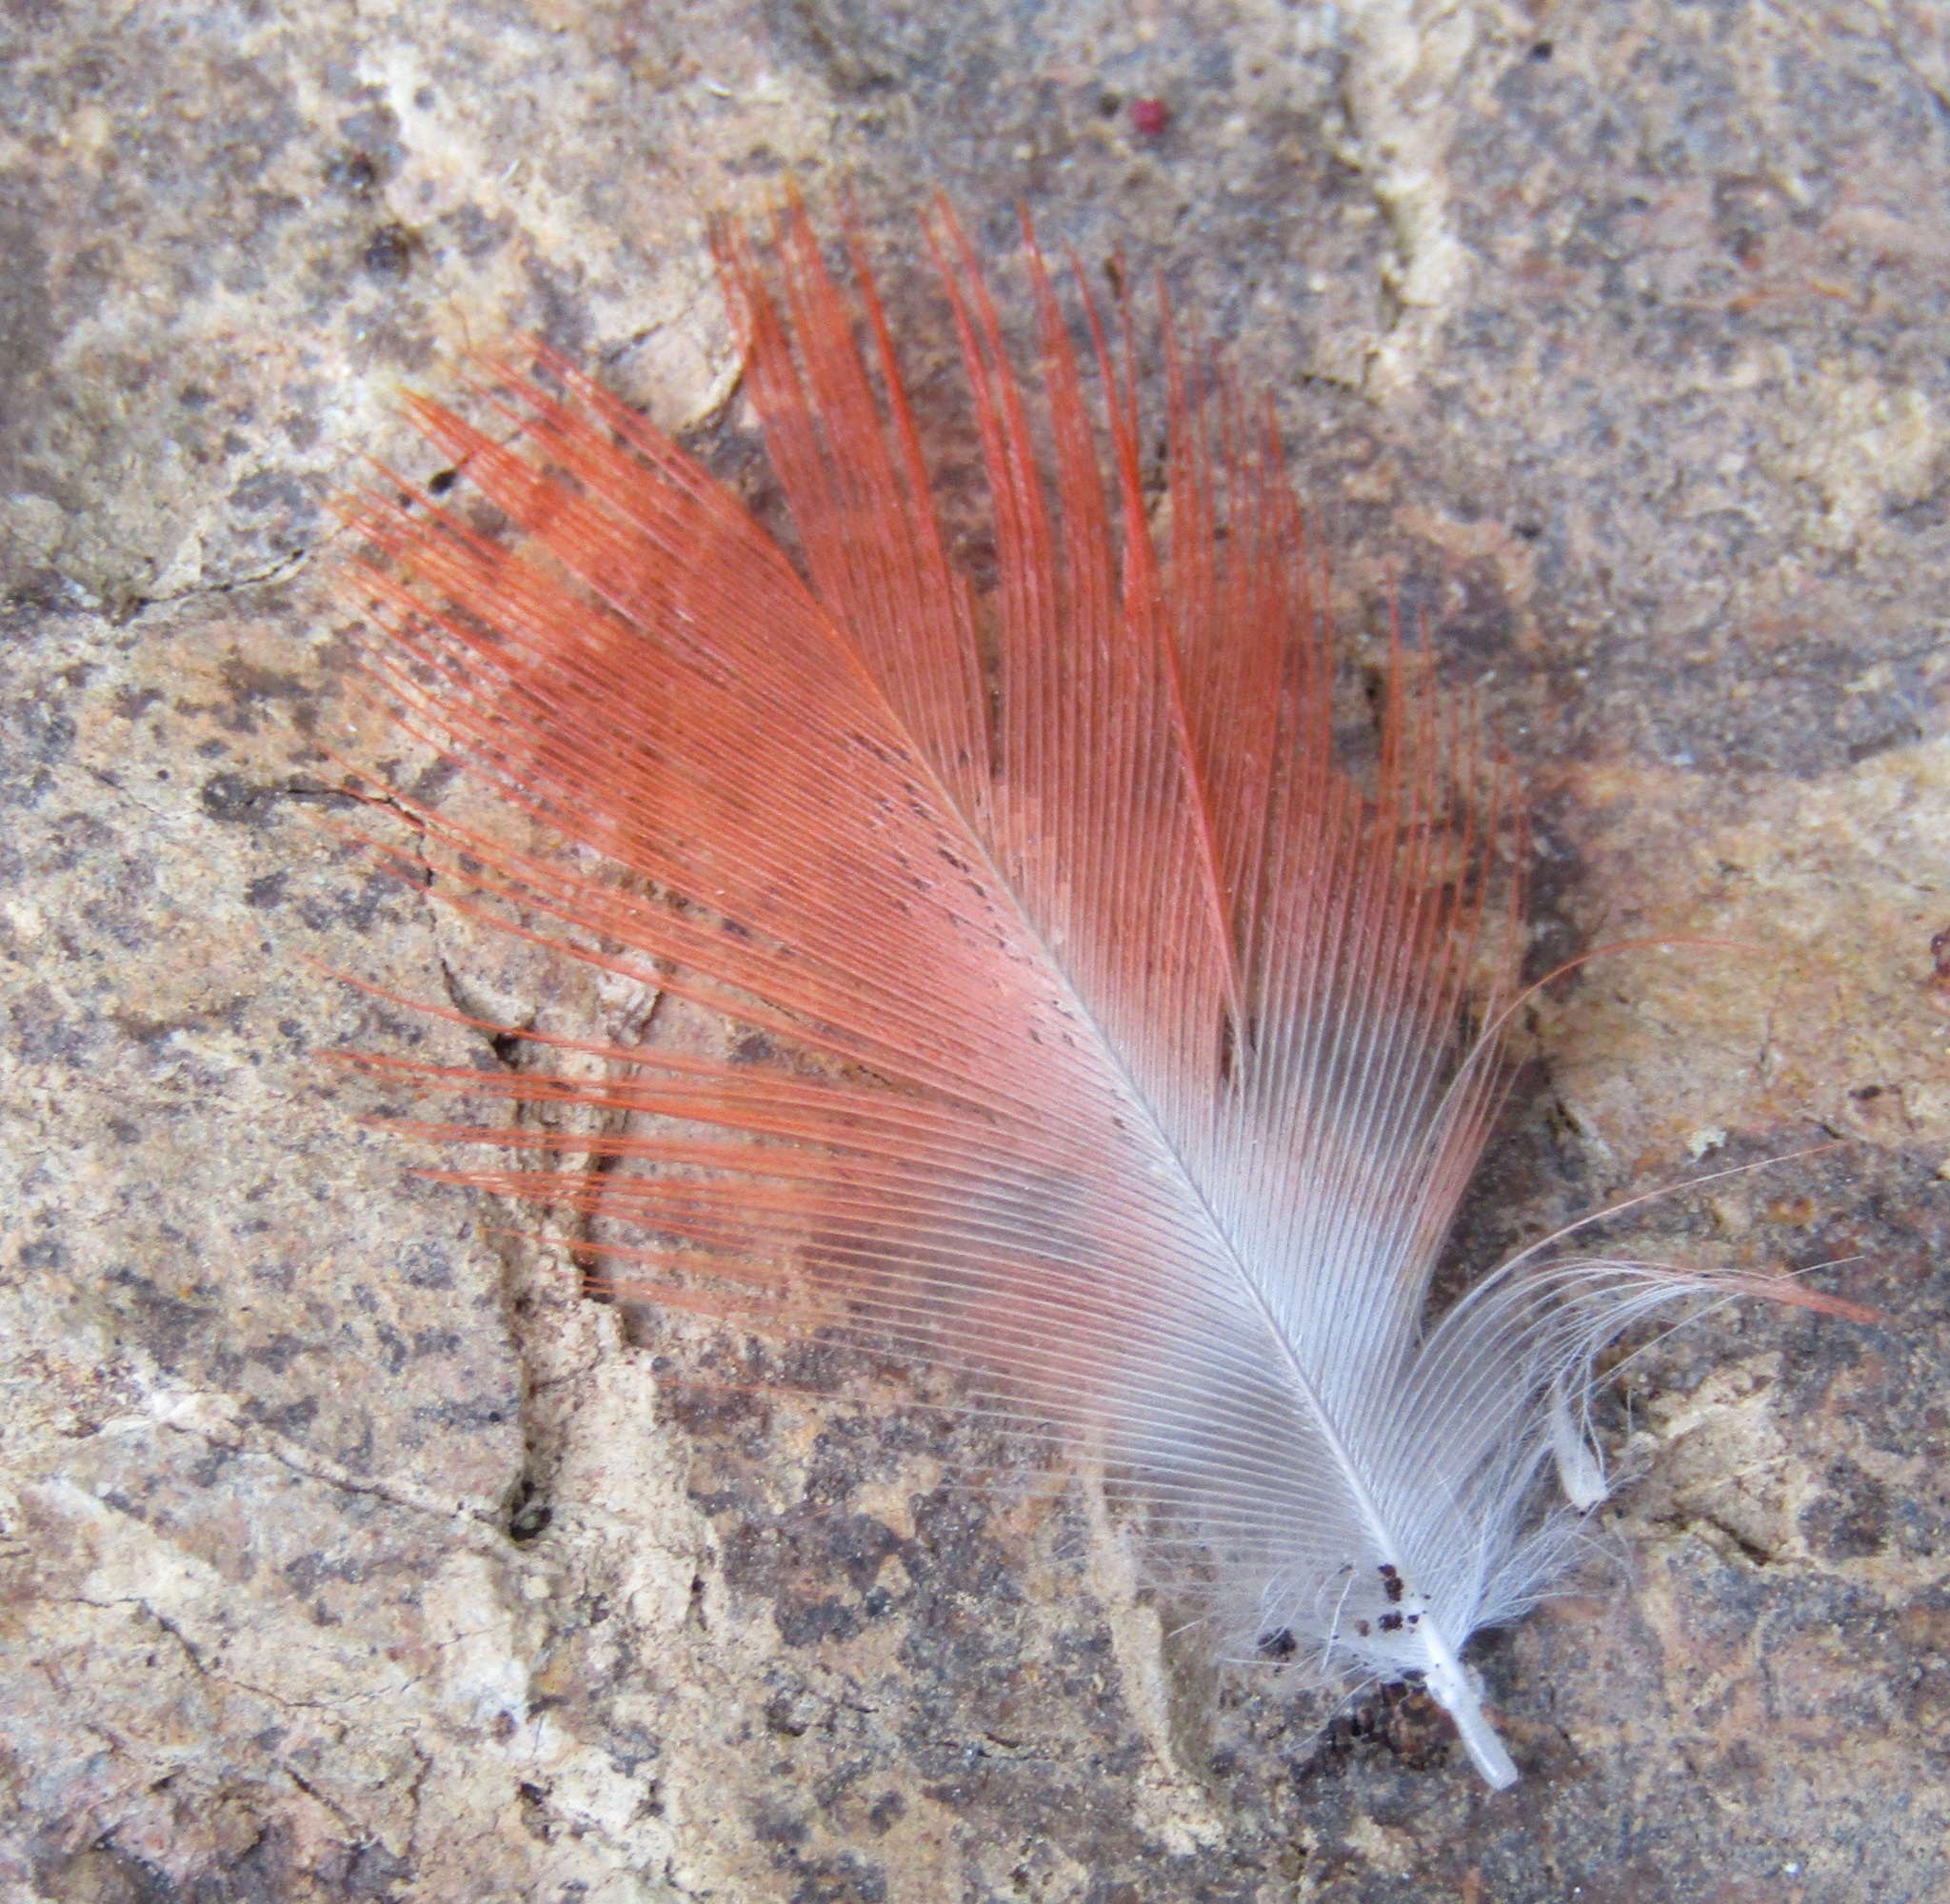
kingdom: Animalia
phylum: Chordata
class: Aves
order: Psittaciformes
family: Psittacidae
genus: Nestor
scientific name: Nestor meridionalis
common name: New zealand kaka
